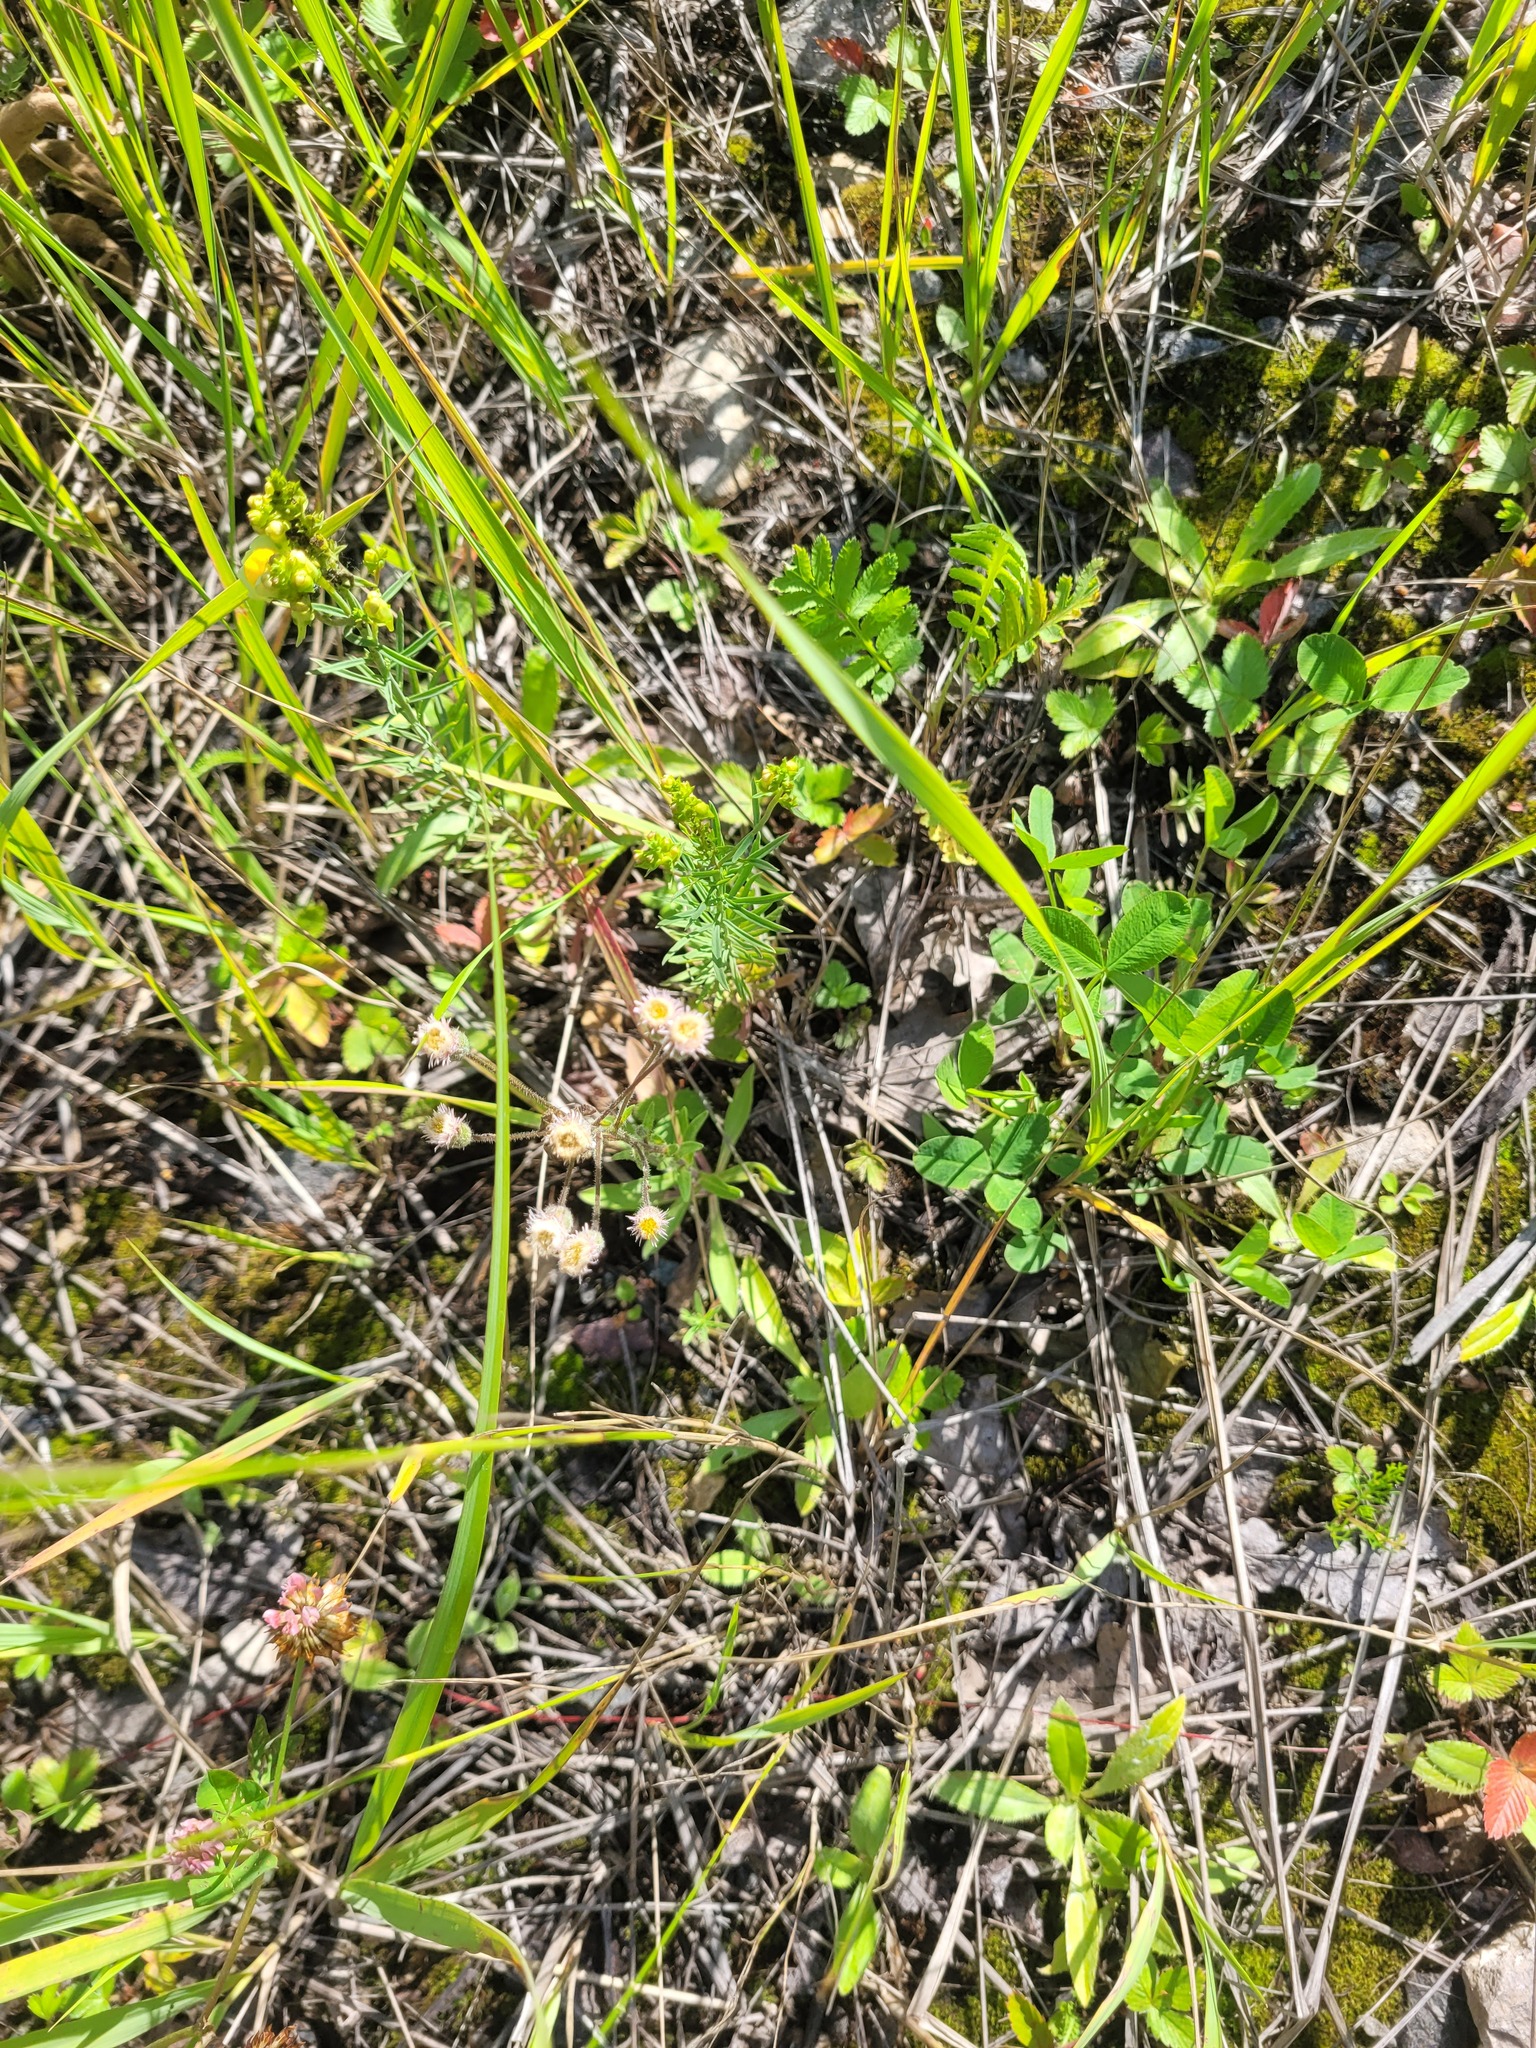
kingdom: Plantae
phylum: Tracheophyta
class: Magnoliopsida
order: Asterales
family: Asteraceae
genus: Erigeron
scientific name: Erigeron acris
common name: Blue fleabane
